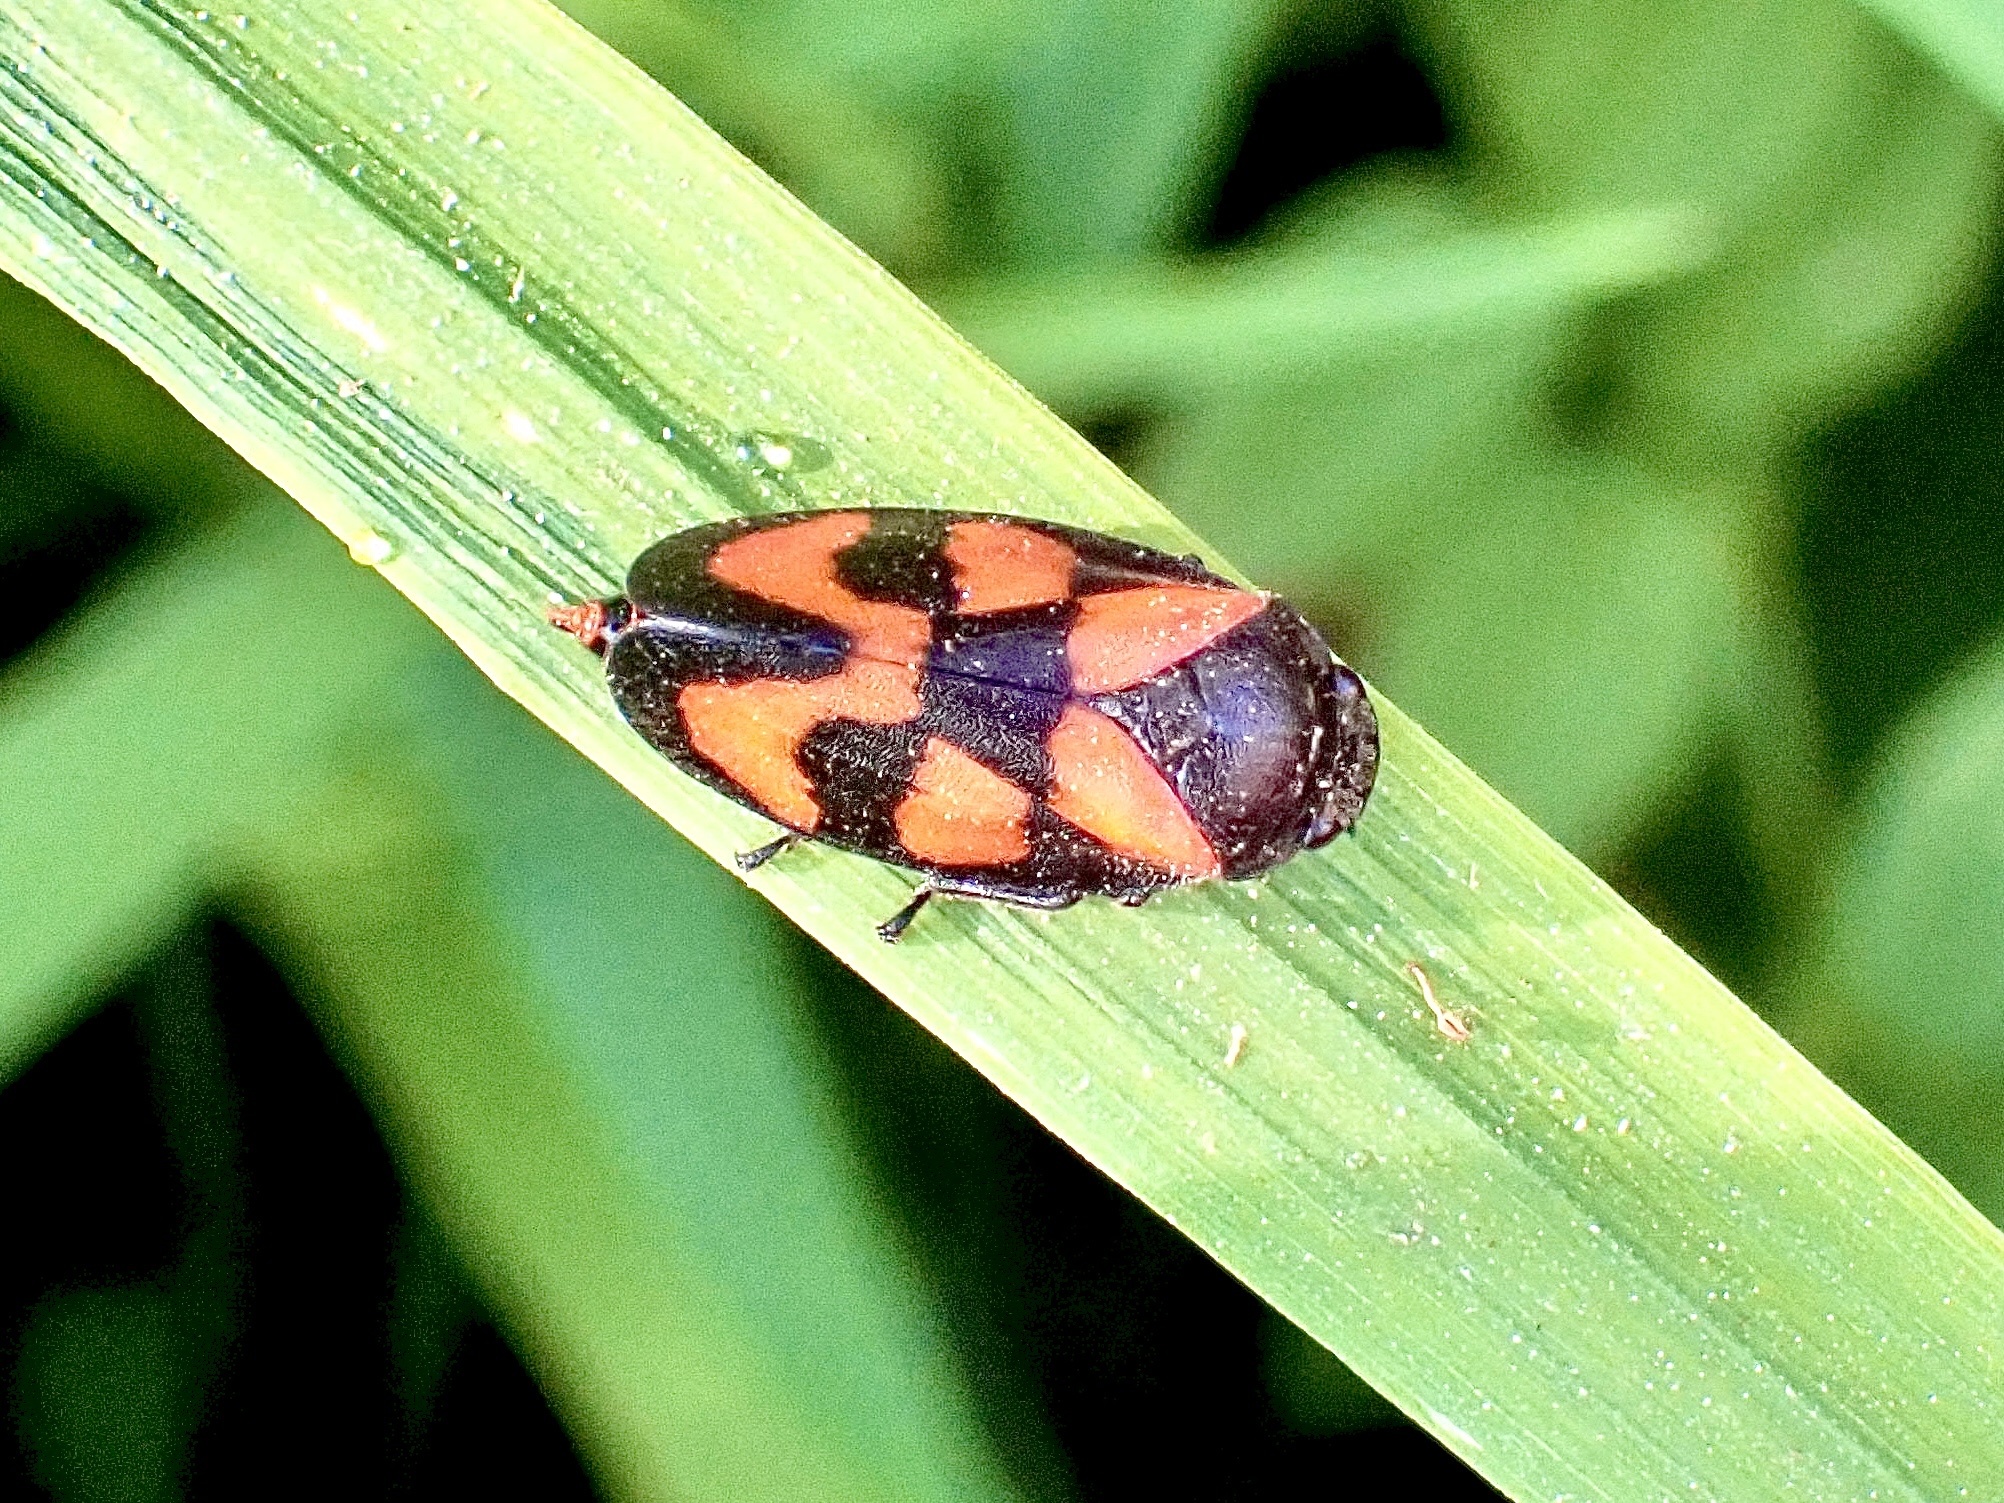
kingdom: Animalia
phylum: Arthropoda
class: Insecta
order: Hemiptera
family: Cercopidae
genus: Cercopis
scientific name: Cercopis vulnerata
